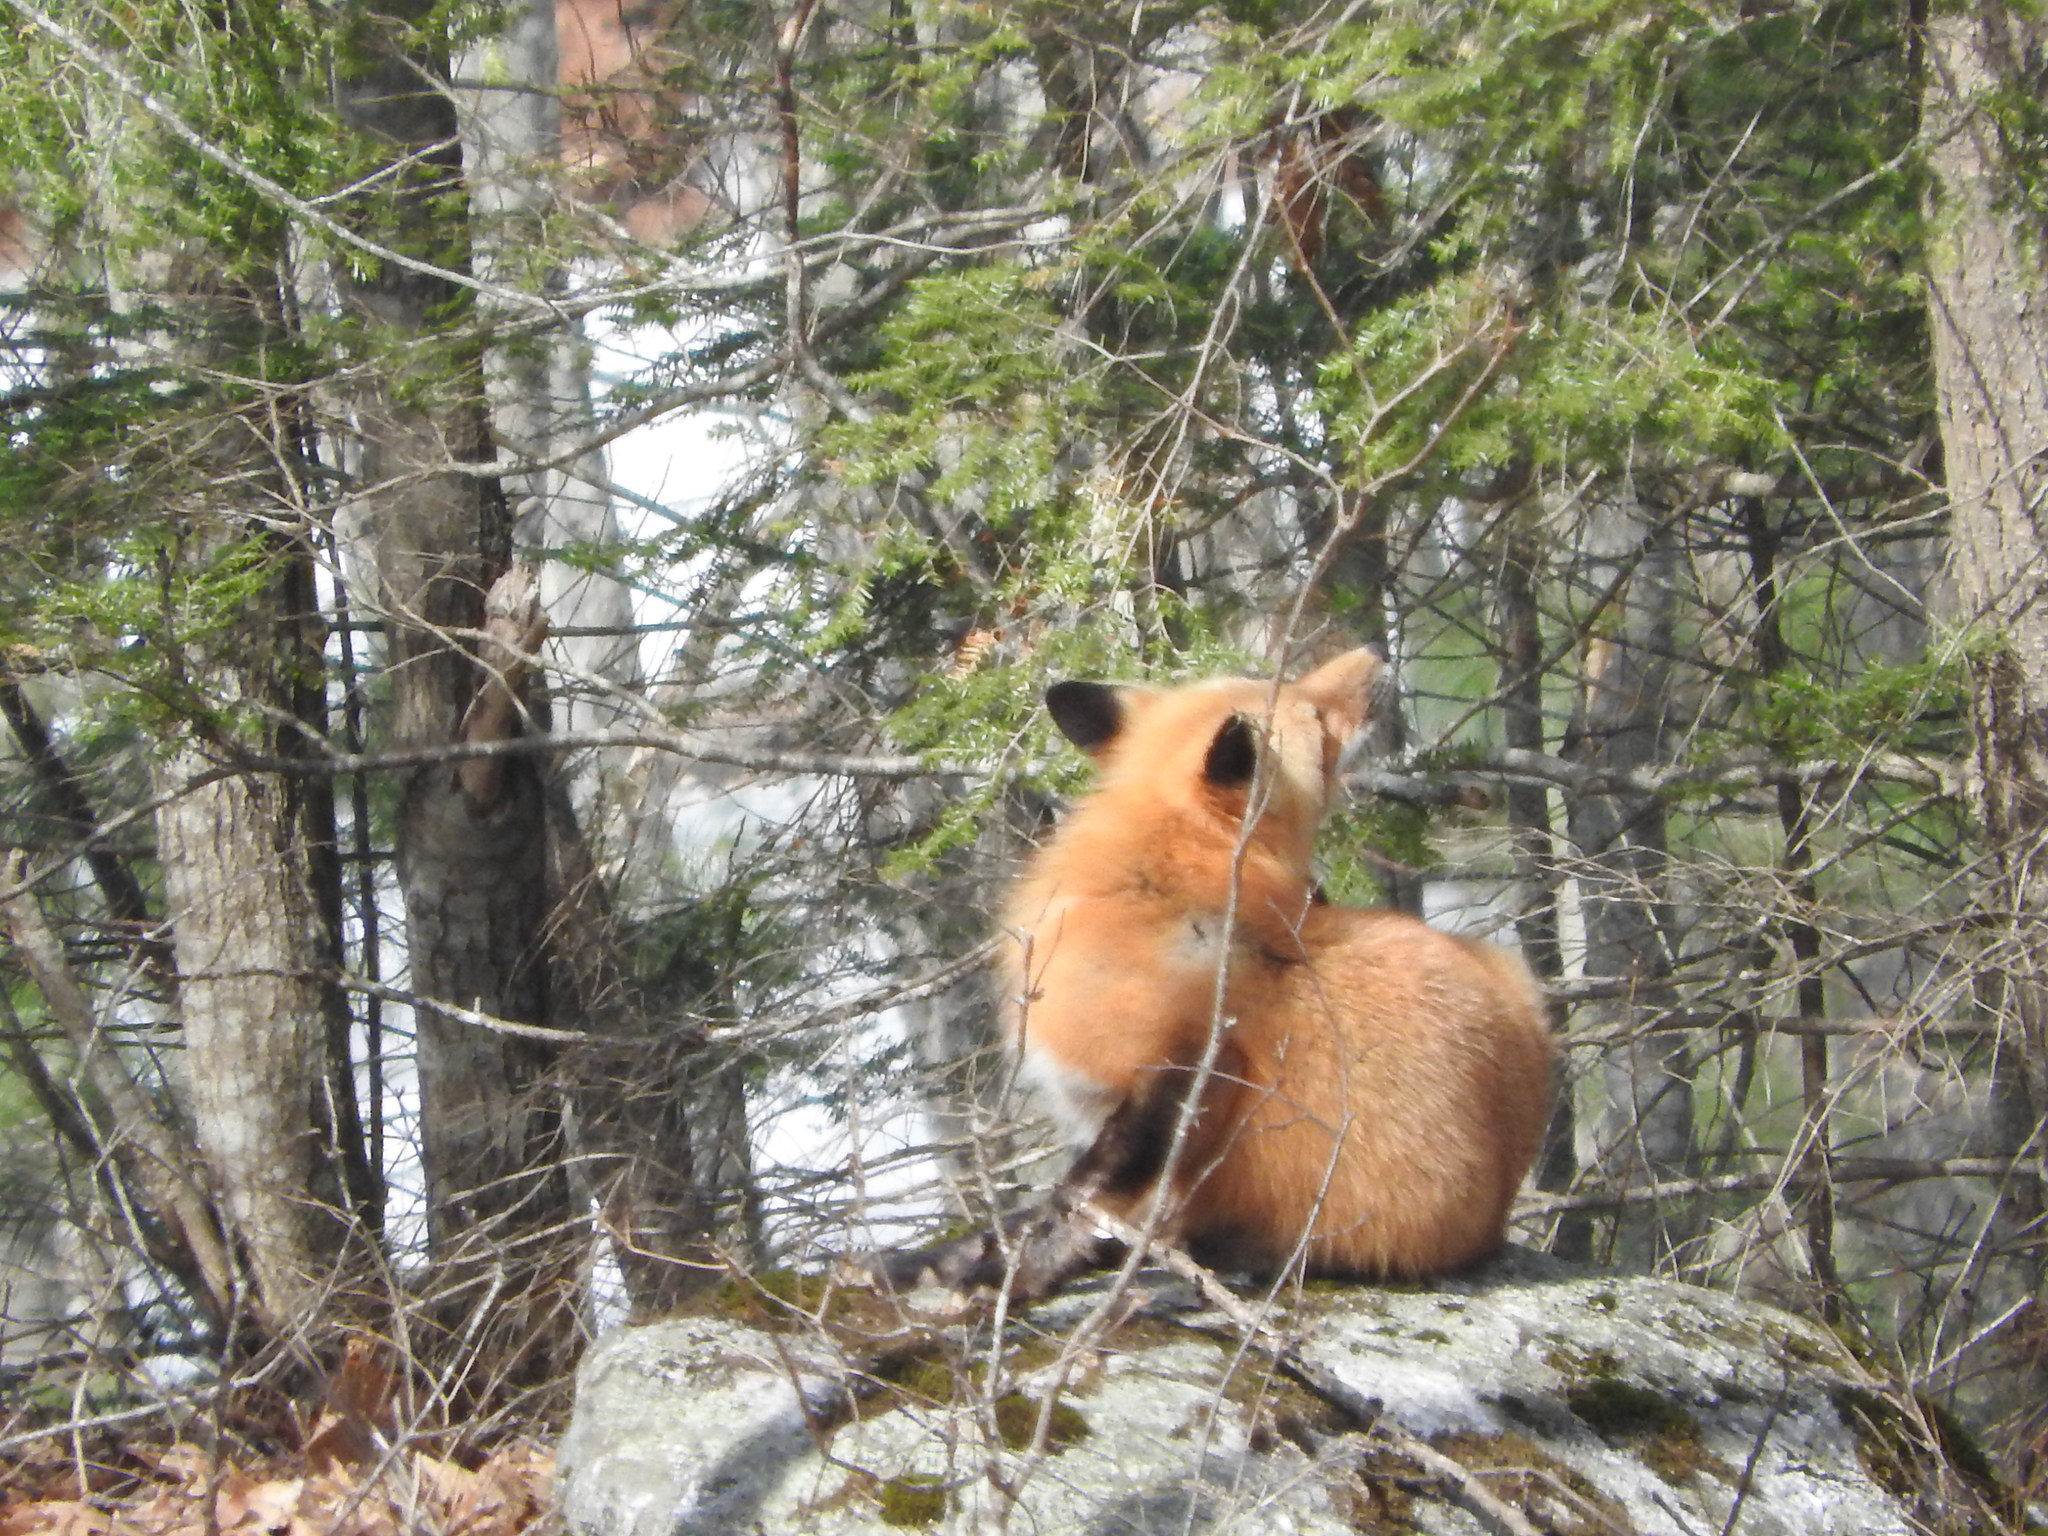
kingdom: Animalia
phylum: Chordata
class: Mammalia
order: Carnivora
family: Canidae
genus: Vulpes
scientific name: Vulpes vulpes
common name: Red fox
